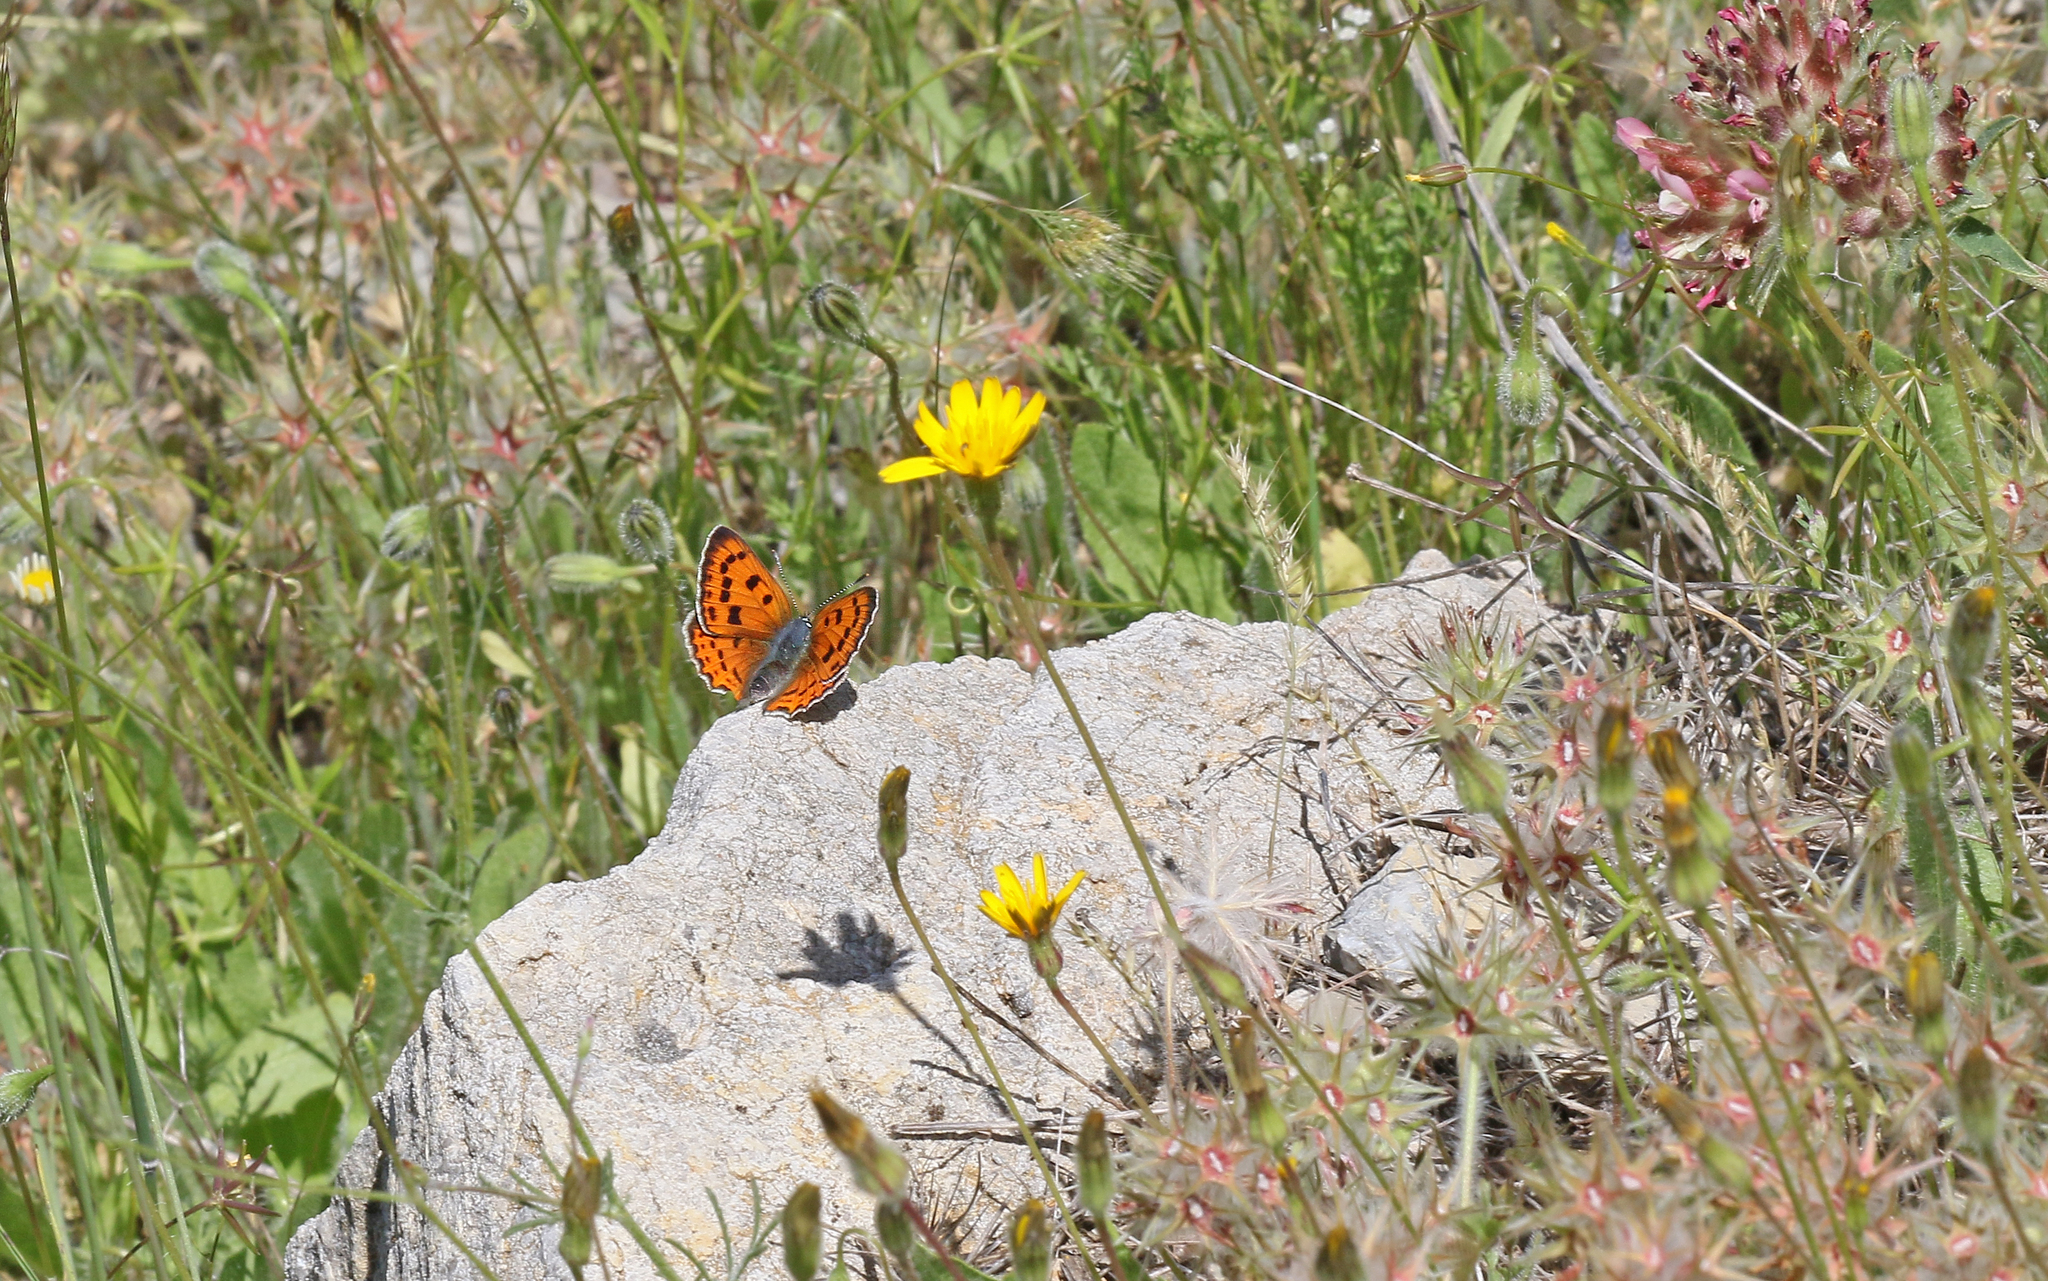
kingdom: Animalia
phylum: Arthropoda
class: Insecta
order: Lepidoptera
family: Lycaenidae
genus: Lycaena
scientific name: Lycaena alciphron
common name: Purple-shot copper
